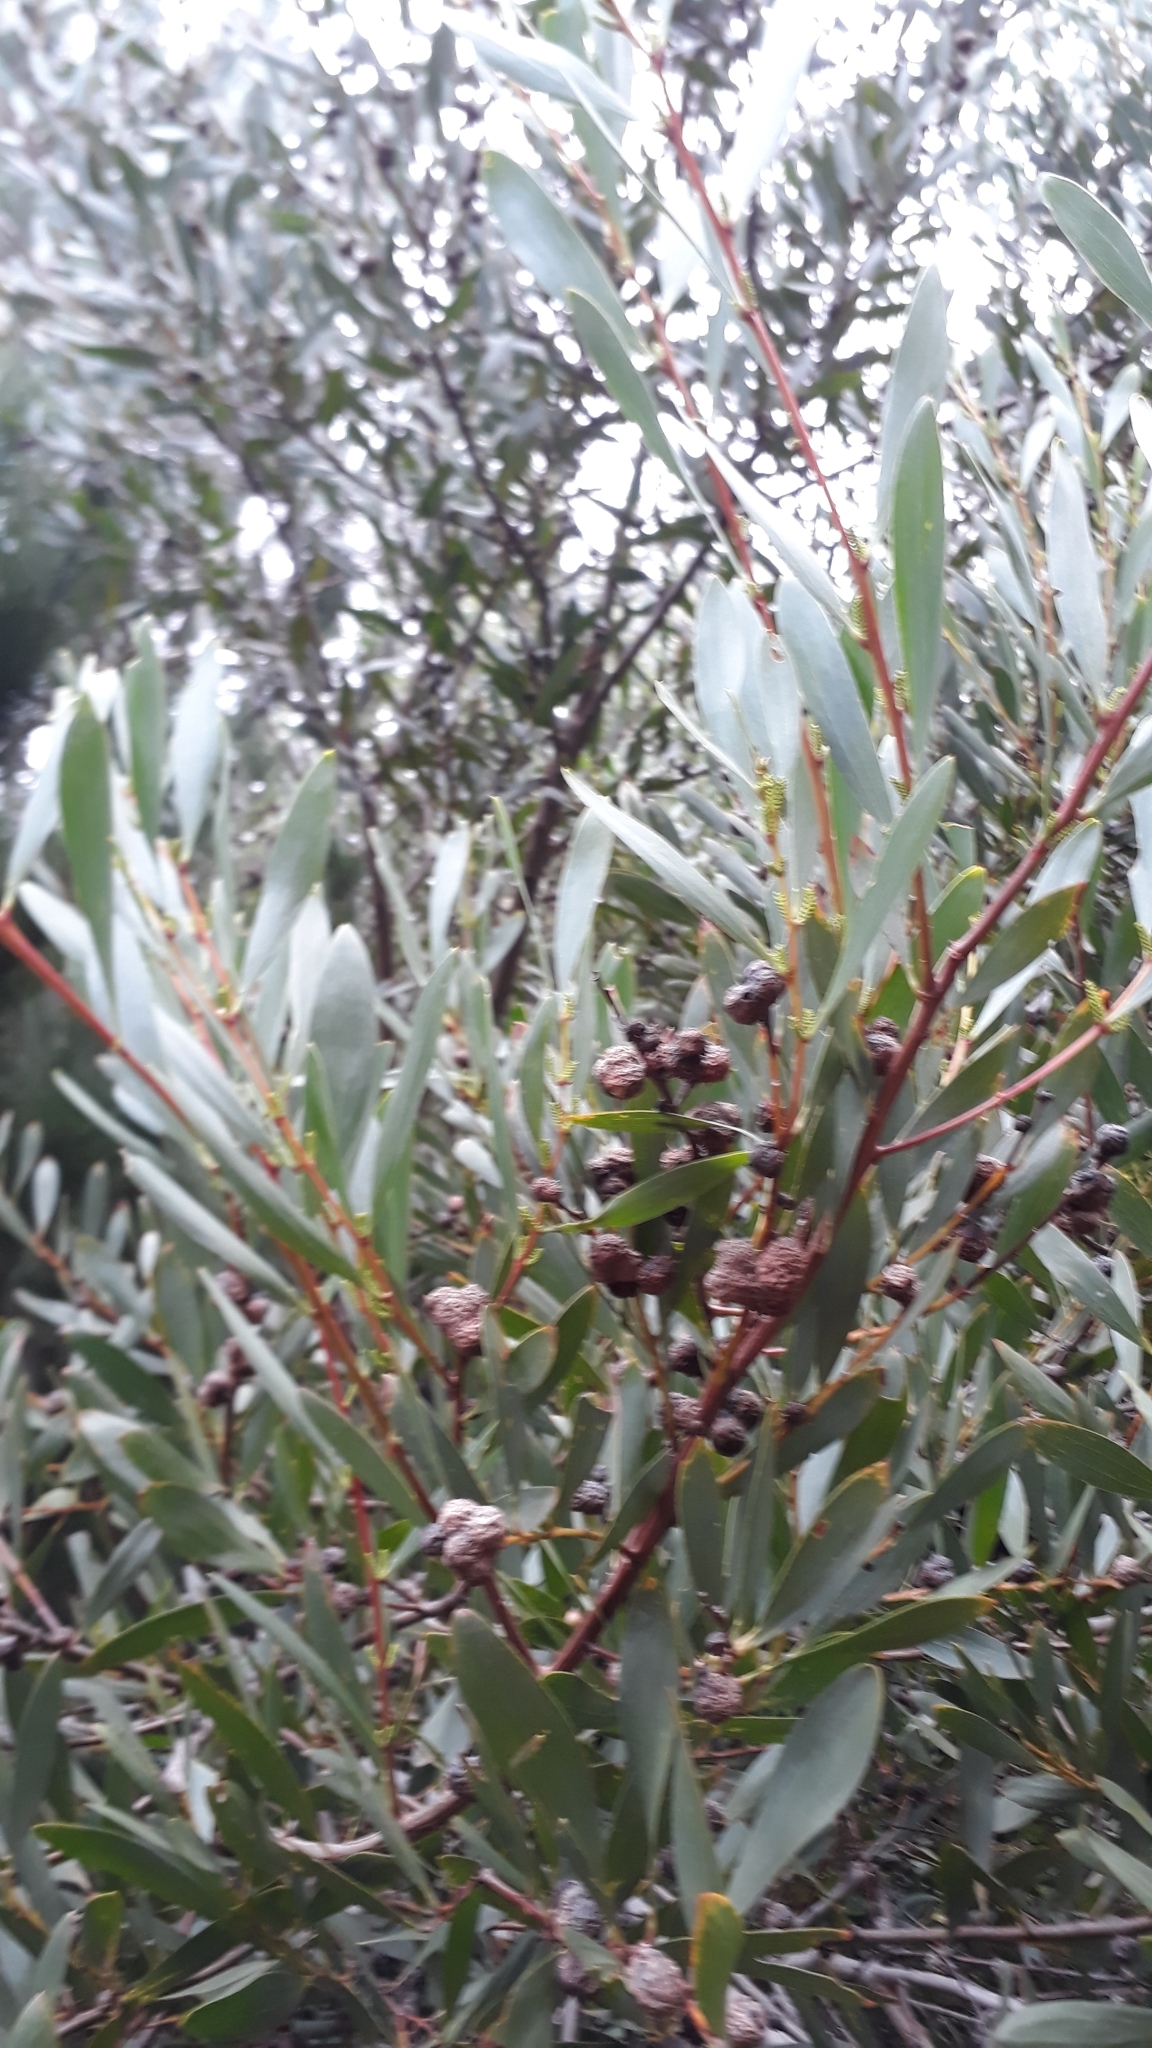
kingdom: Plantae
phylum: Tracheophyta
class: Magnoliopsida
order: Fabales
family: Fabaceae
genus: Acacia
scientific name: Acacia longifolia
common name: Sydney golden wattle
